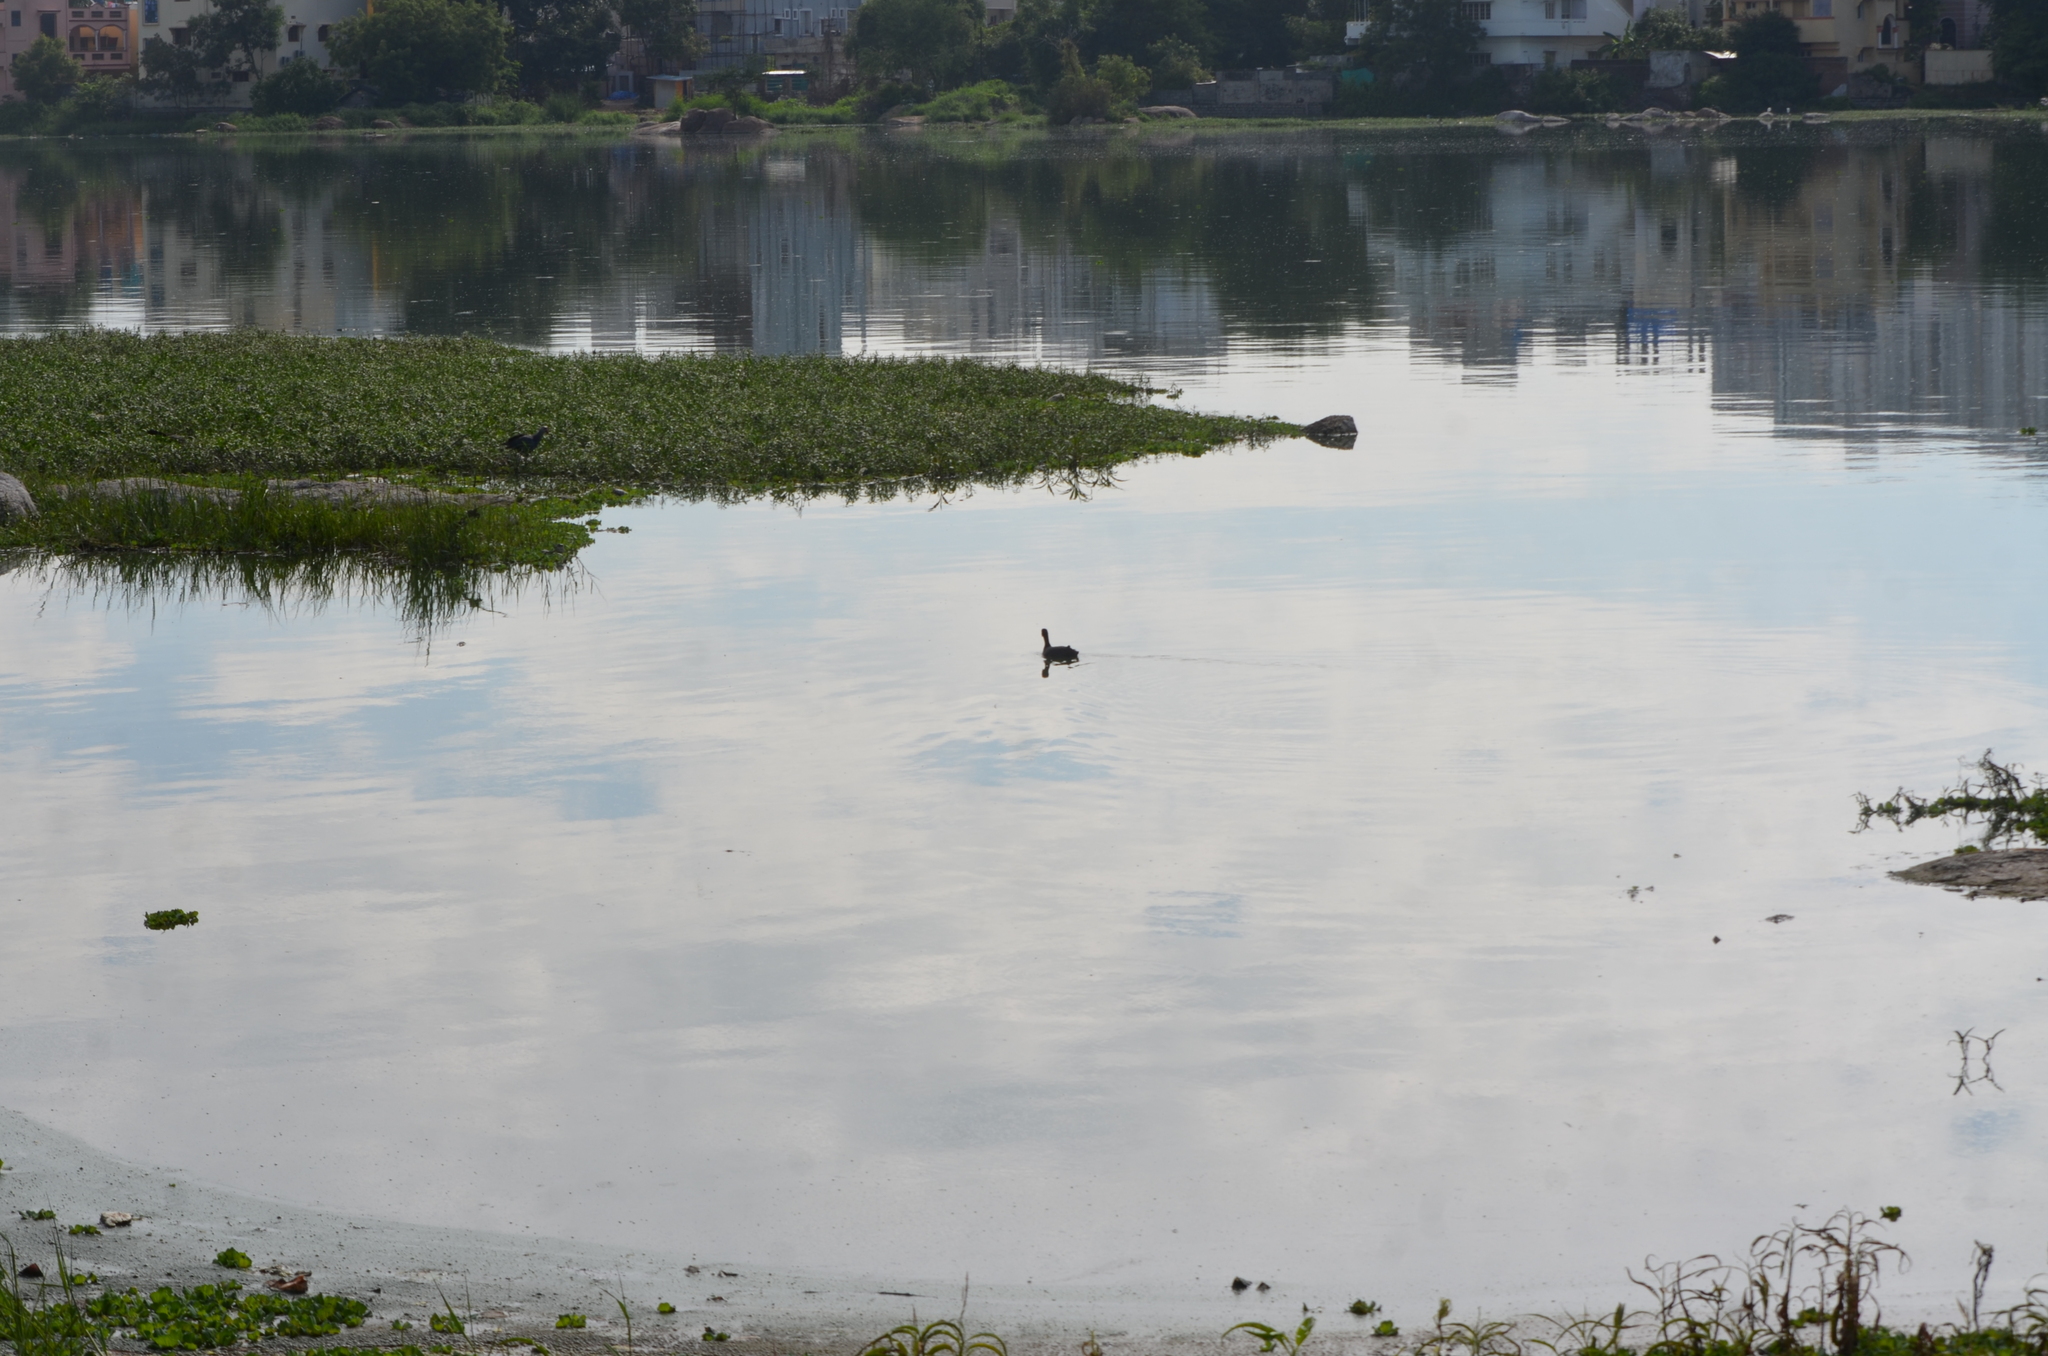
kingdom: Animalia
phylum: Chordata
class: Aves
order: Gruiformes
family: Rallidae
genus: Fulica
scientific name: Fulica atra
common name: Eurasian coot
